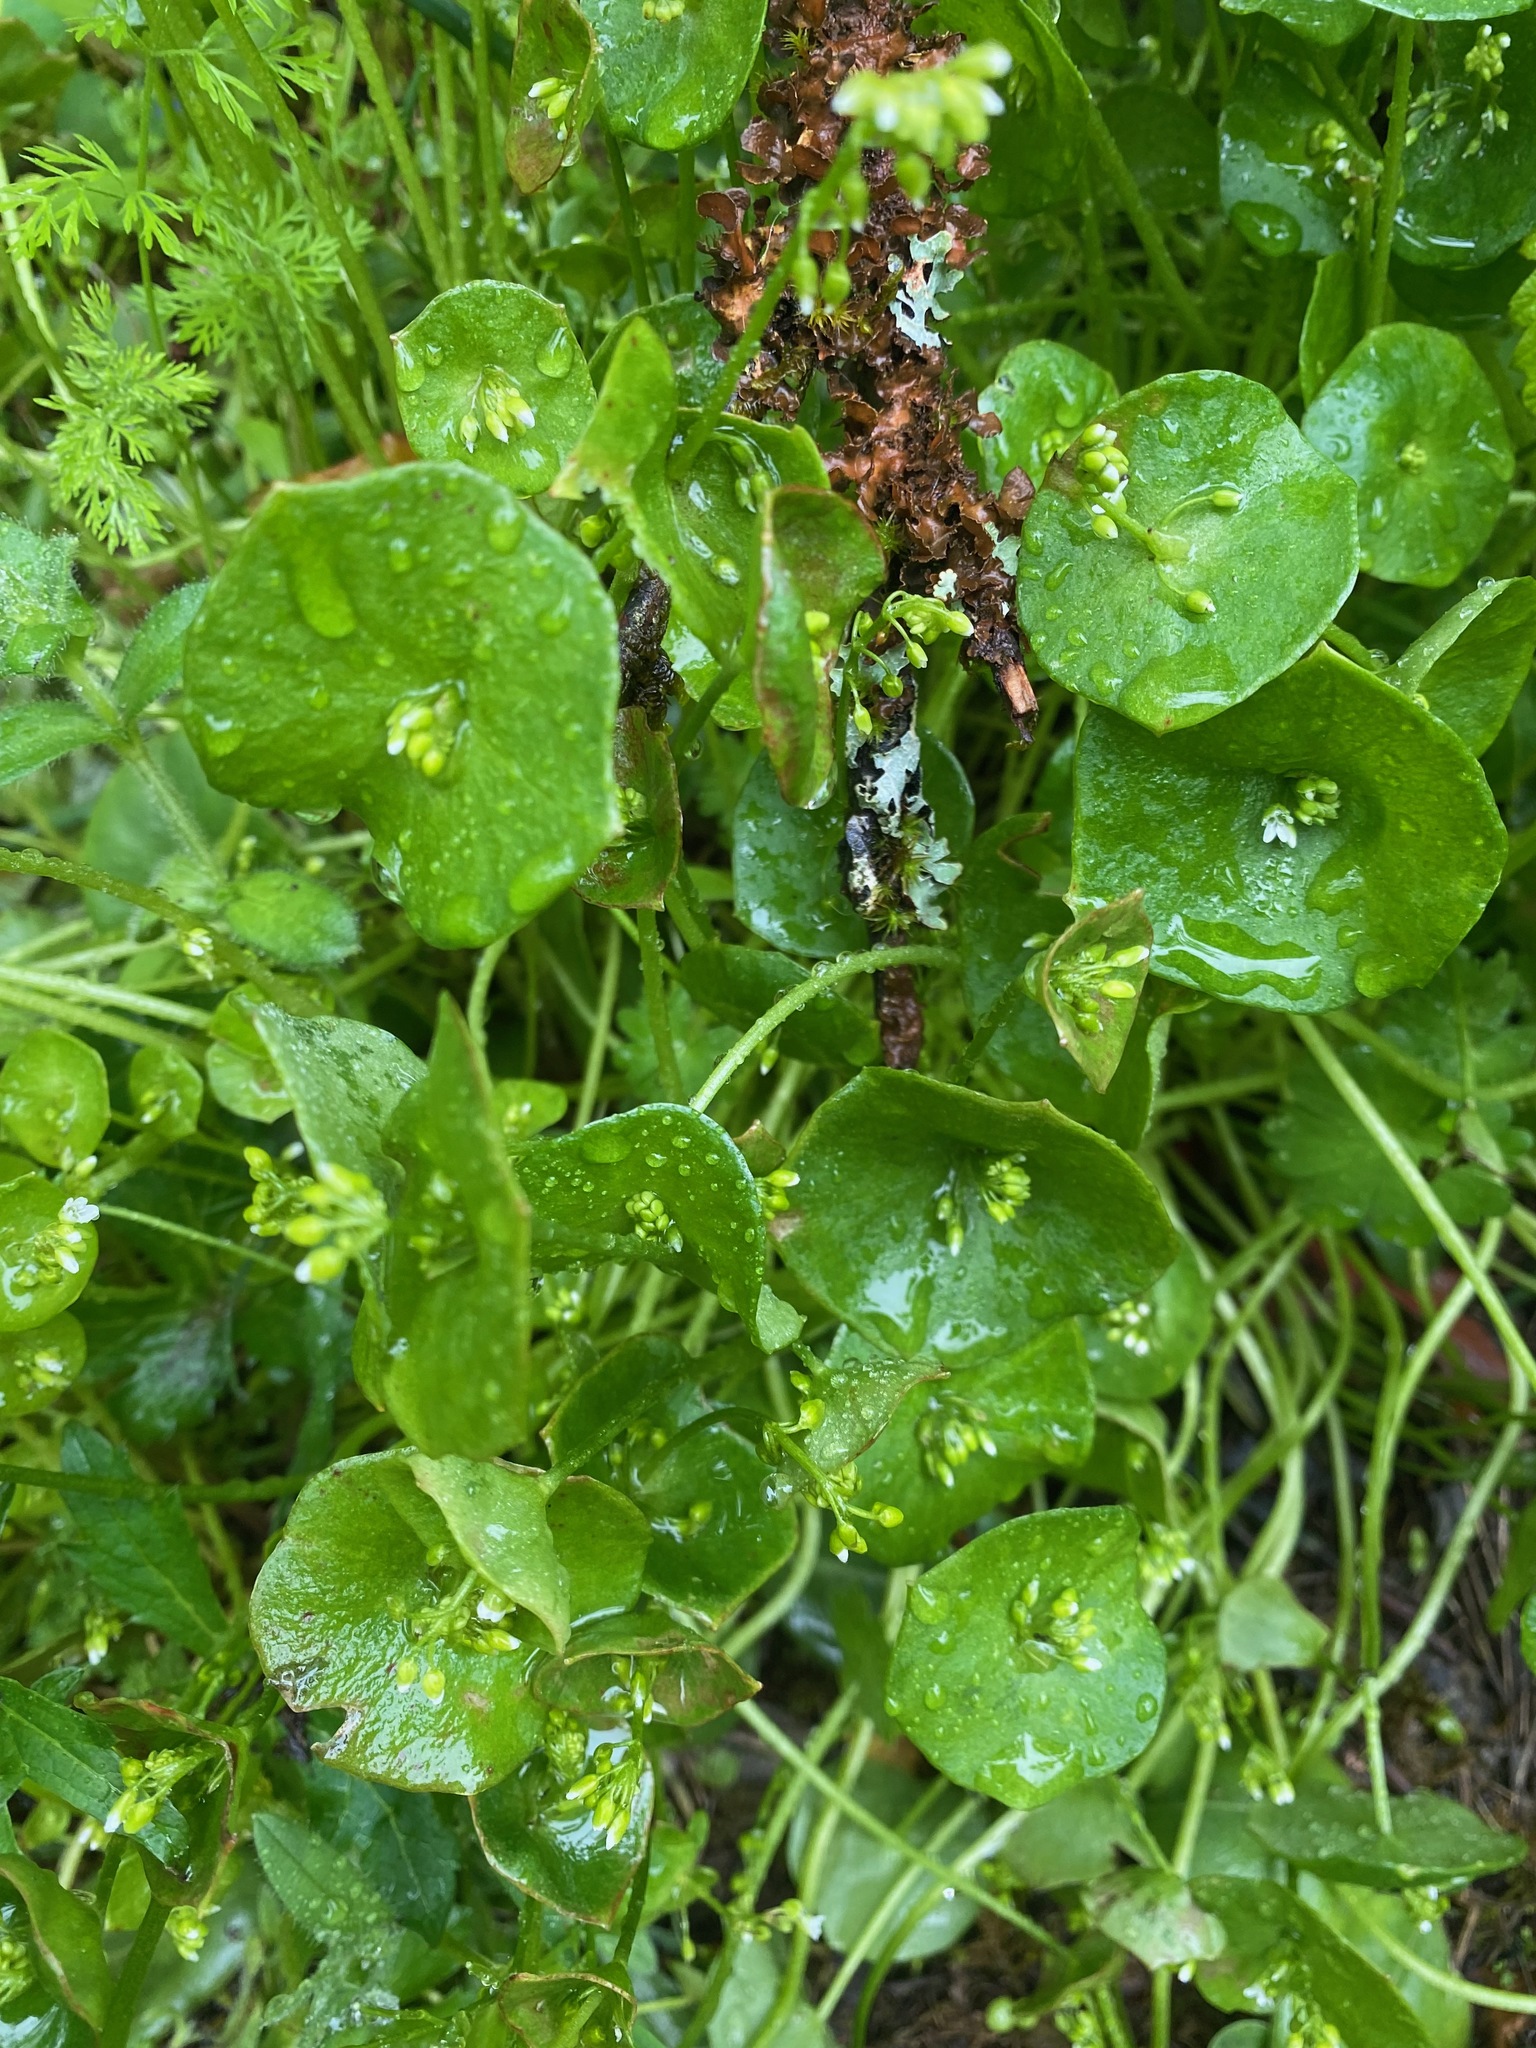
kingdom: Plantae
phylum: Tracheophyta
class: Magnoliopsida
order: Caryophyllales
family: Montiaceae
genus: Claytonia
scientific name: Claytonia perfoliata
